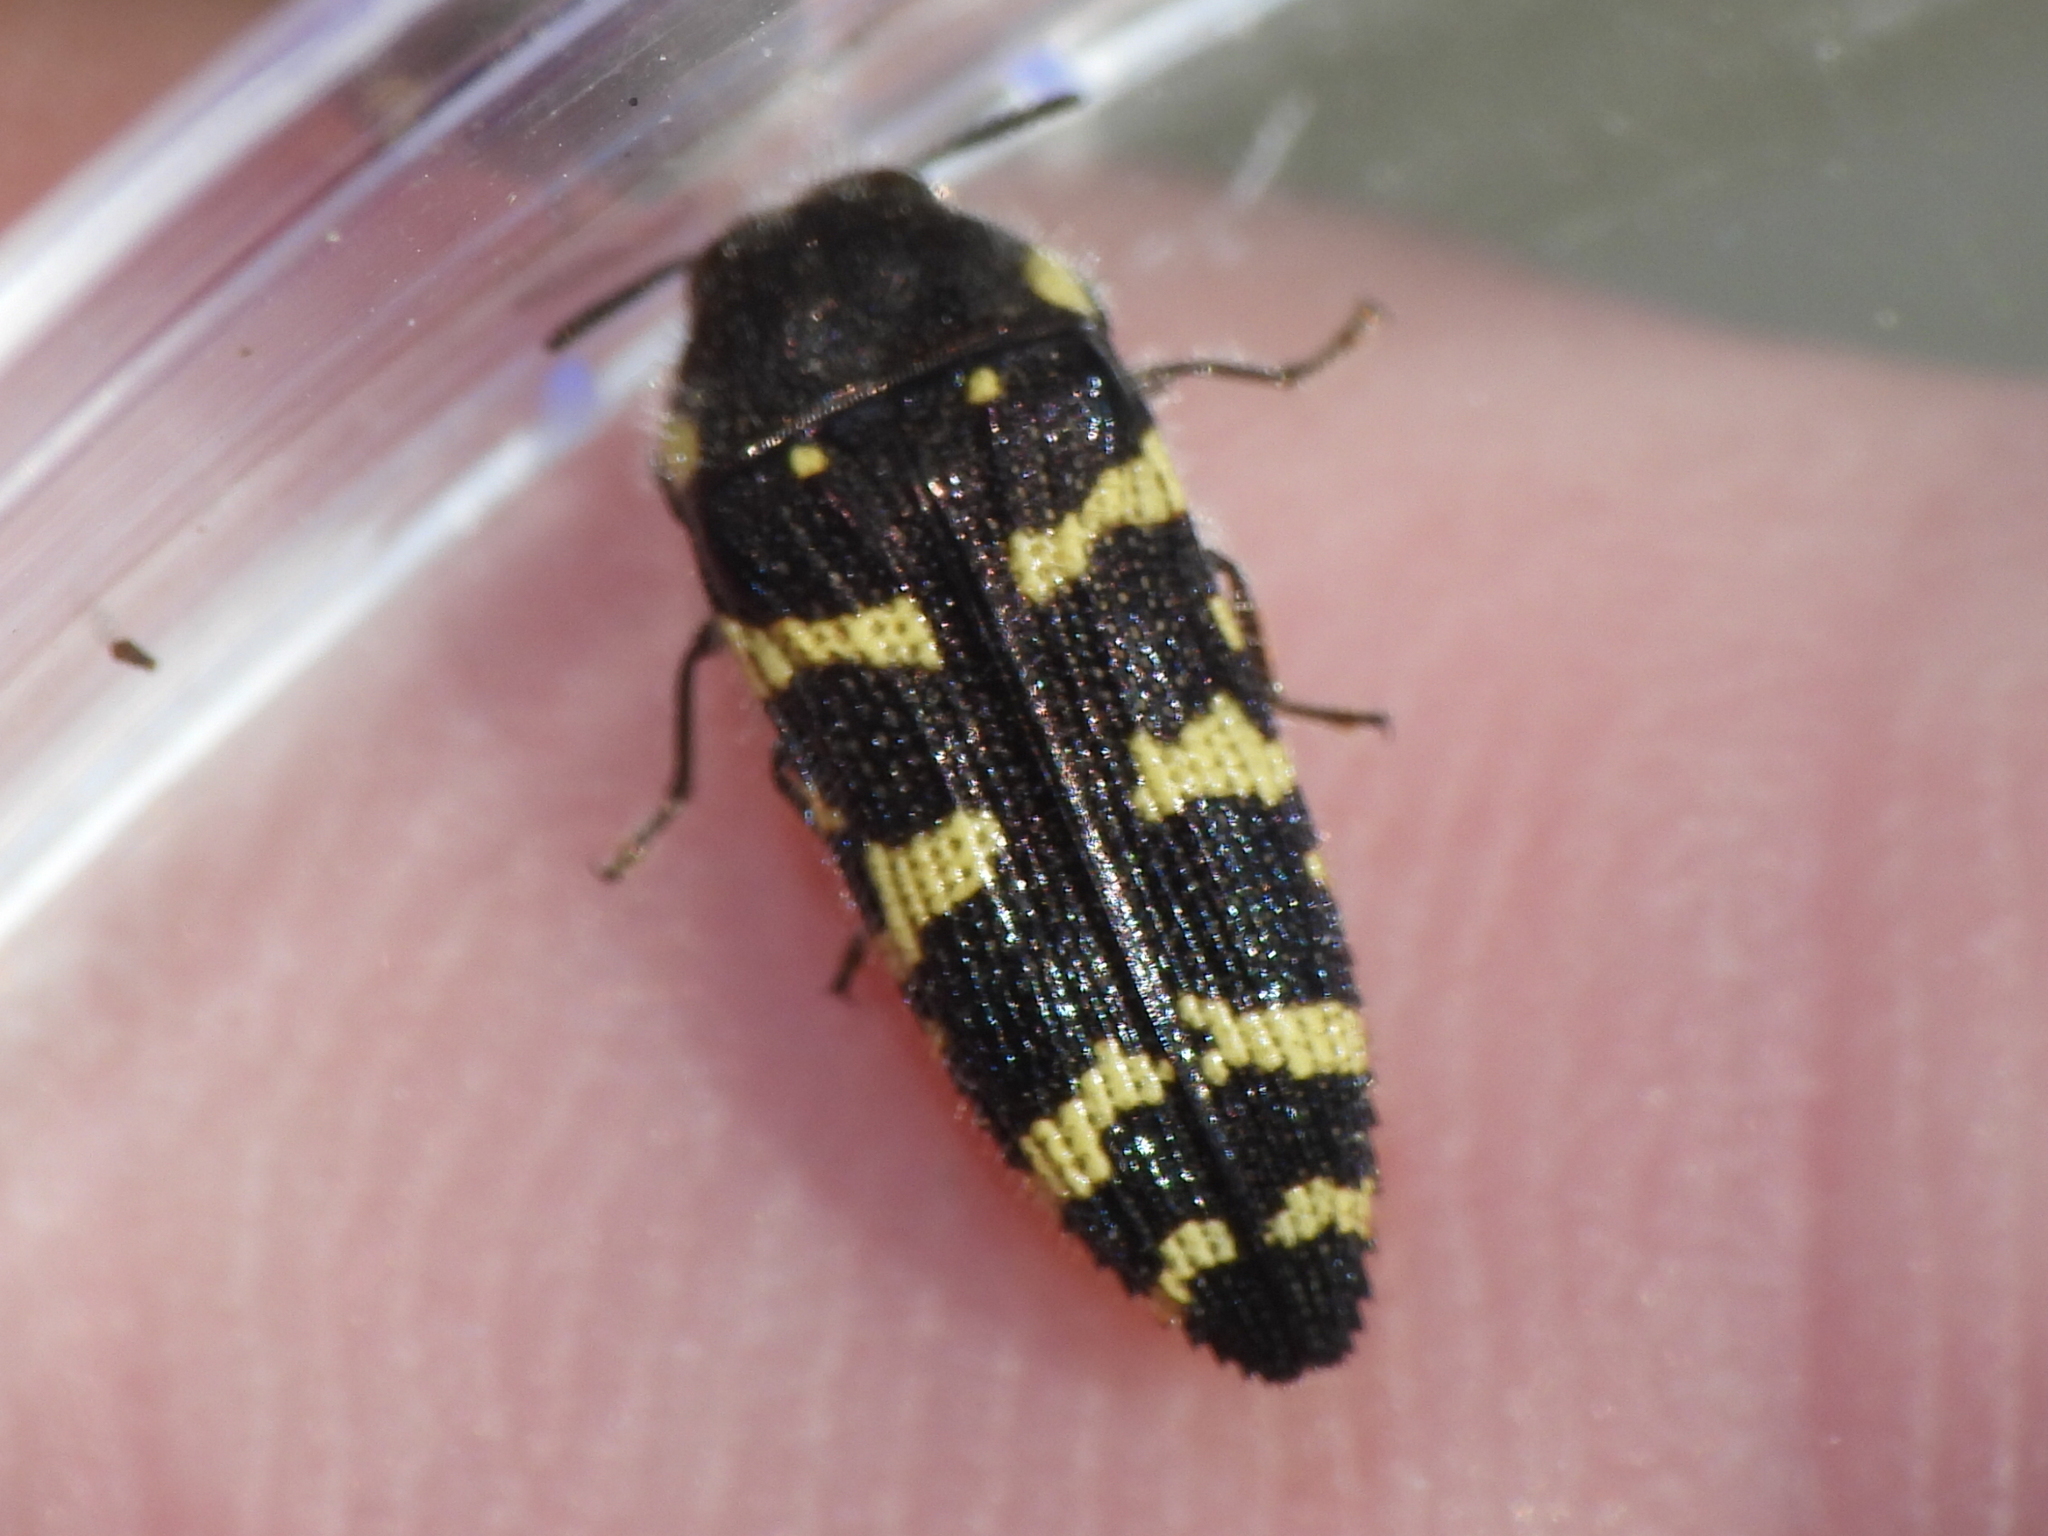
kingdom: Animalia
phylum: Arthropoda
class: Insecta
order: Coleoptera
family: Buprestidae
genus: Acmaeodera
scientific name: Acmaeodera macra
